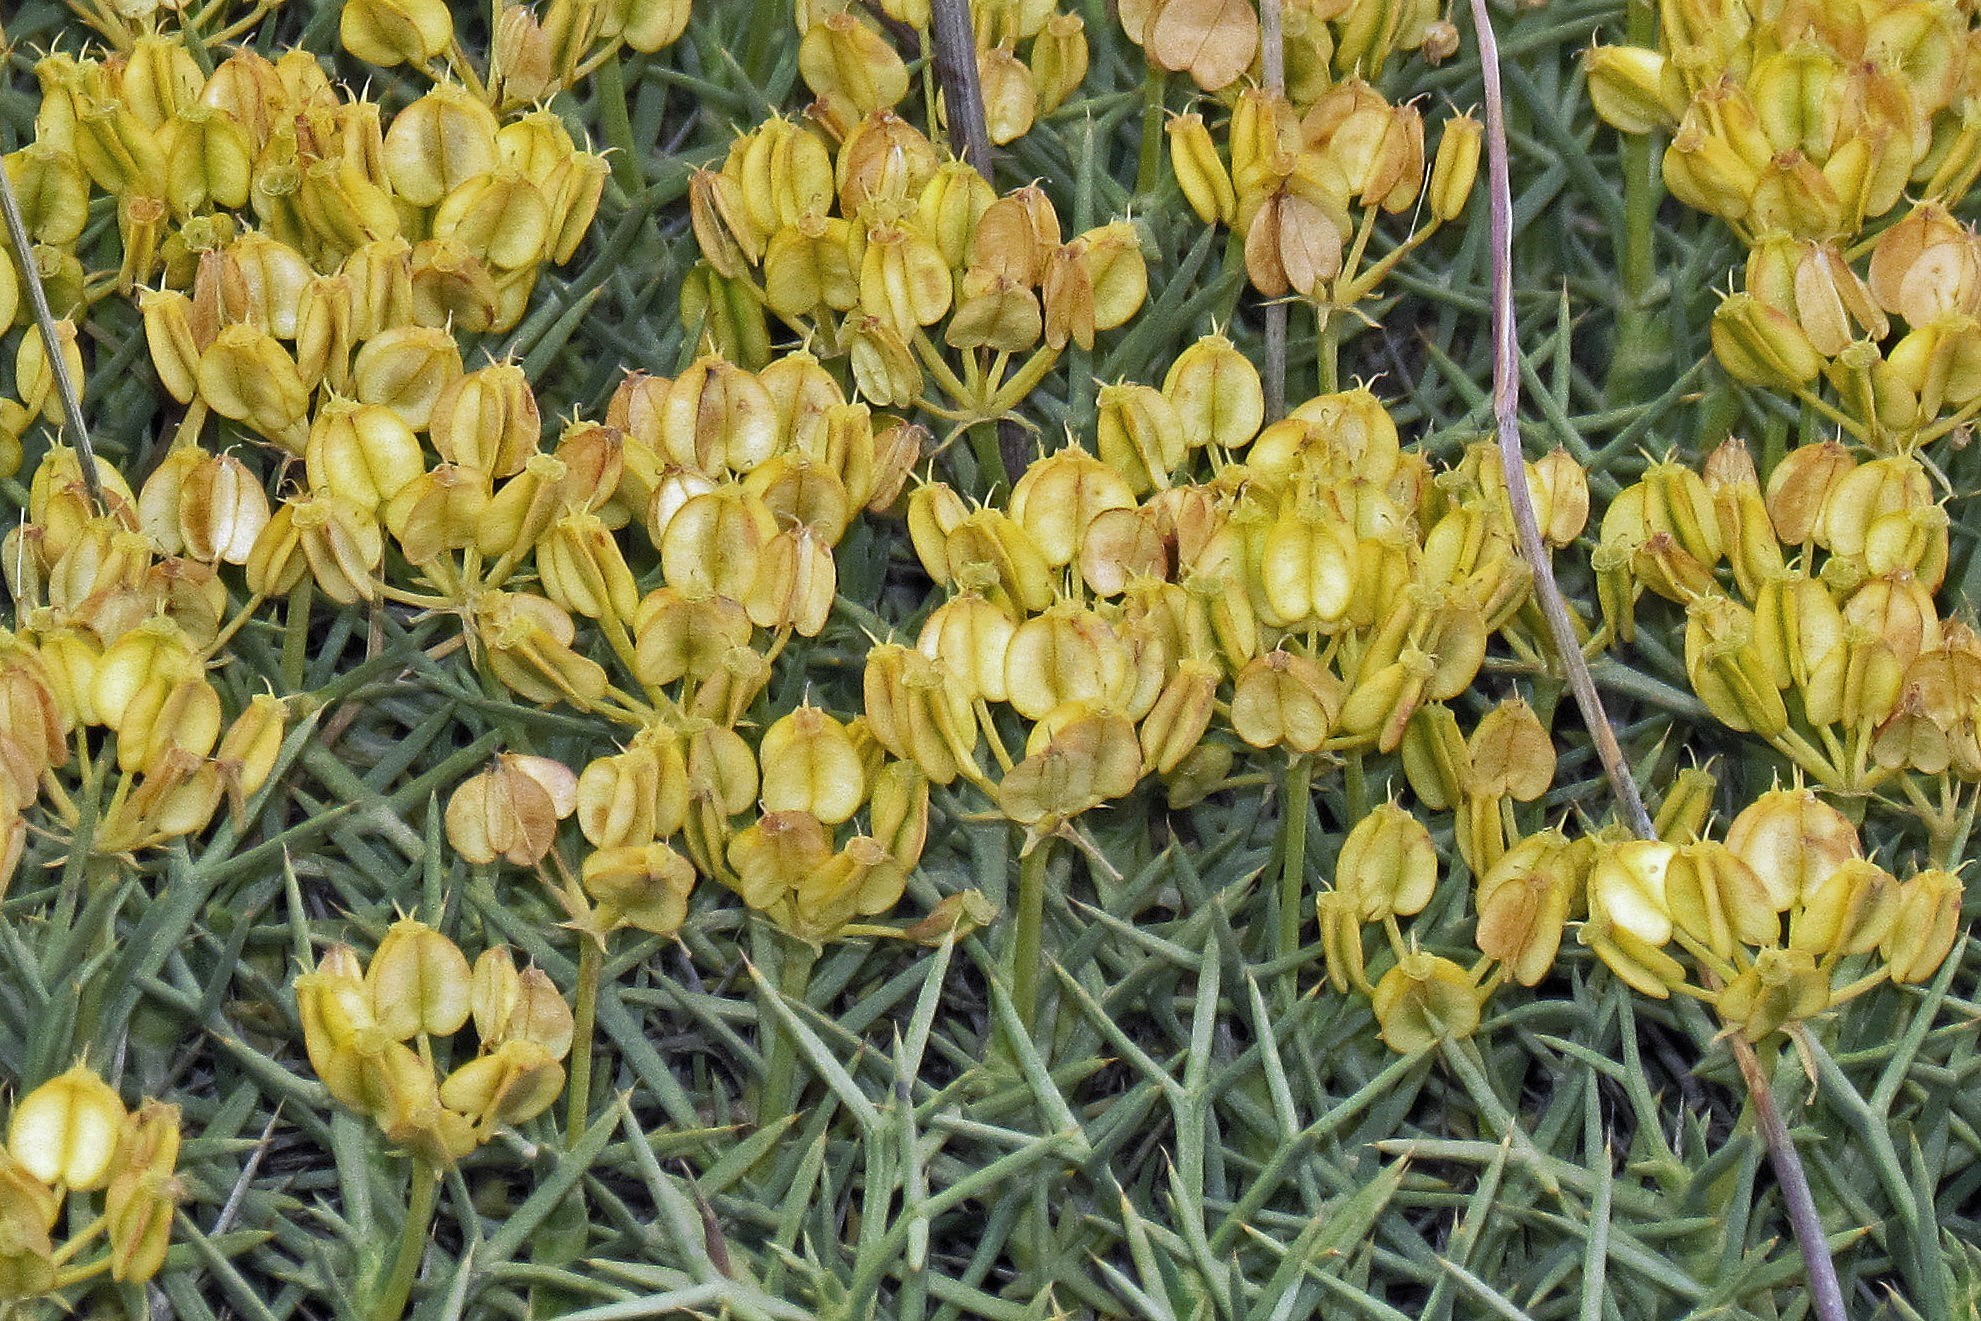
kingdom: Plantae
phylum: Tracheophyta
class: Magnoliopsida
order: Apiales
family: Apiaceae
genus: Azorella
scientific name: Azorella prolifera
